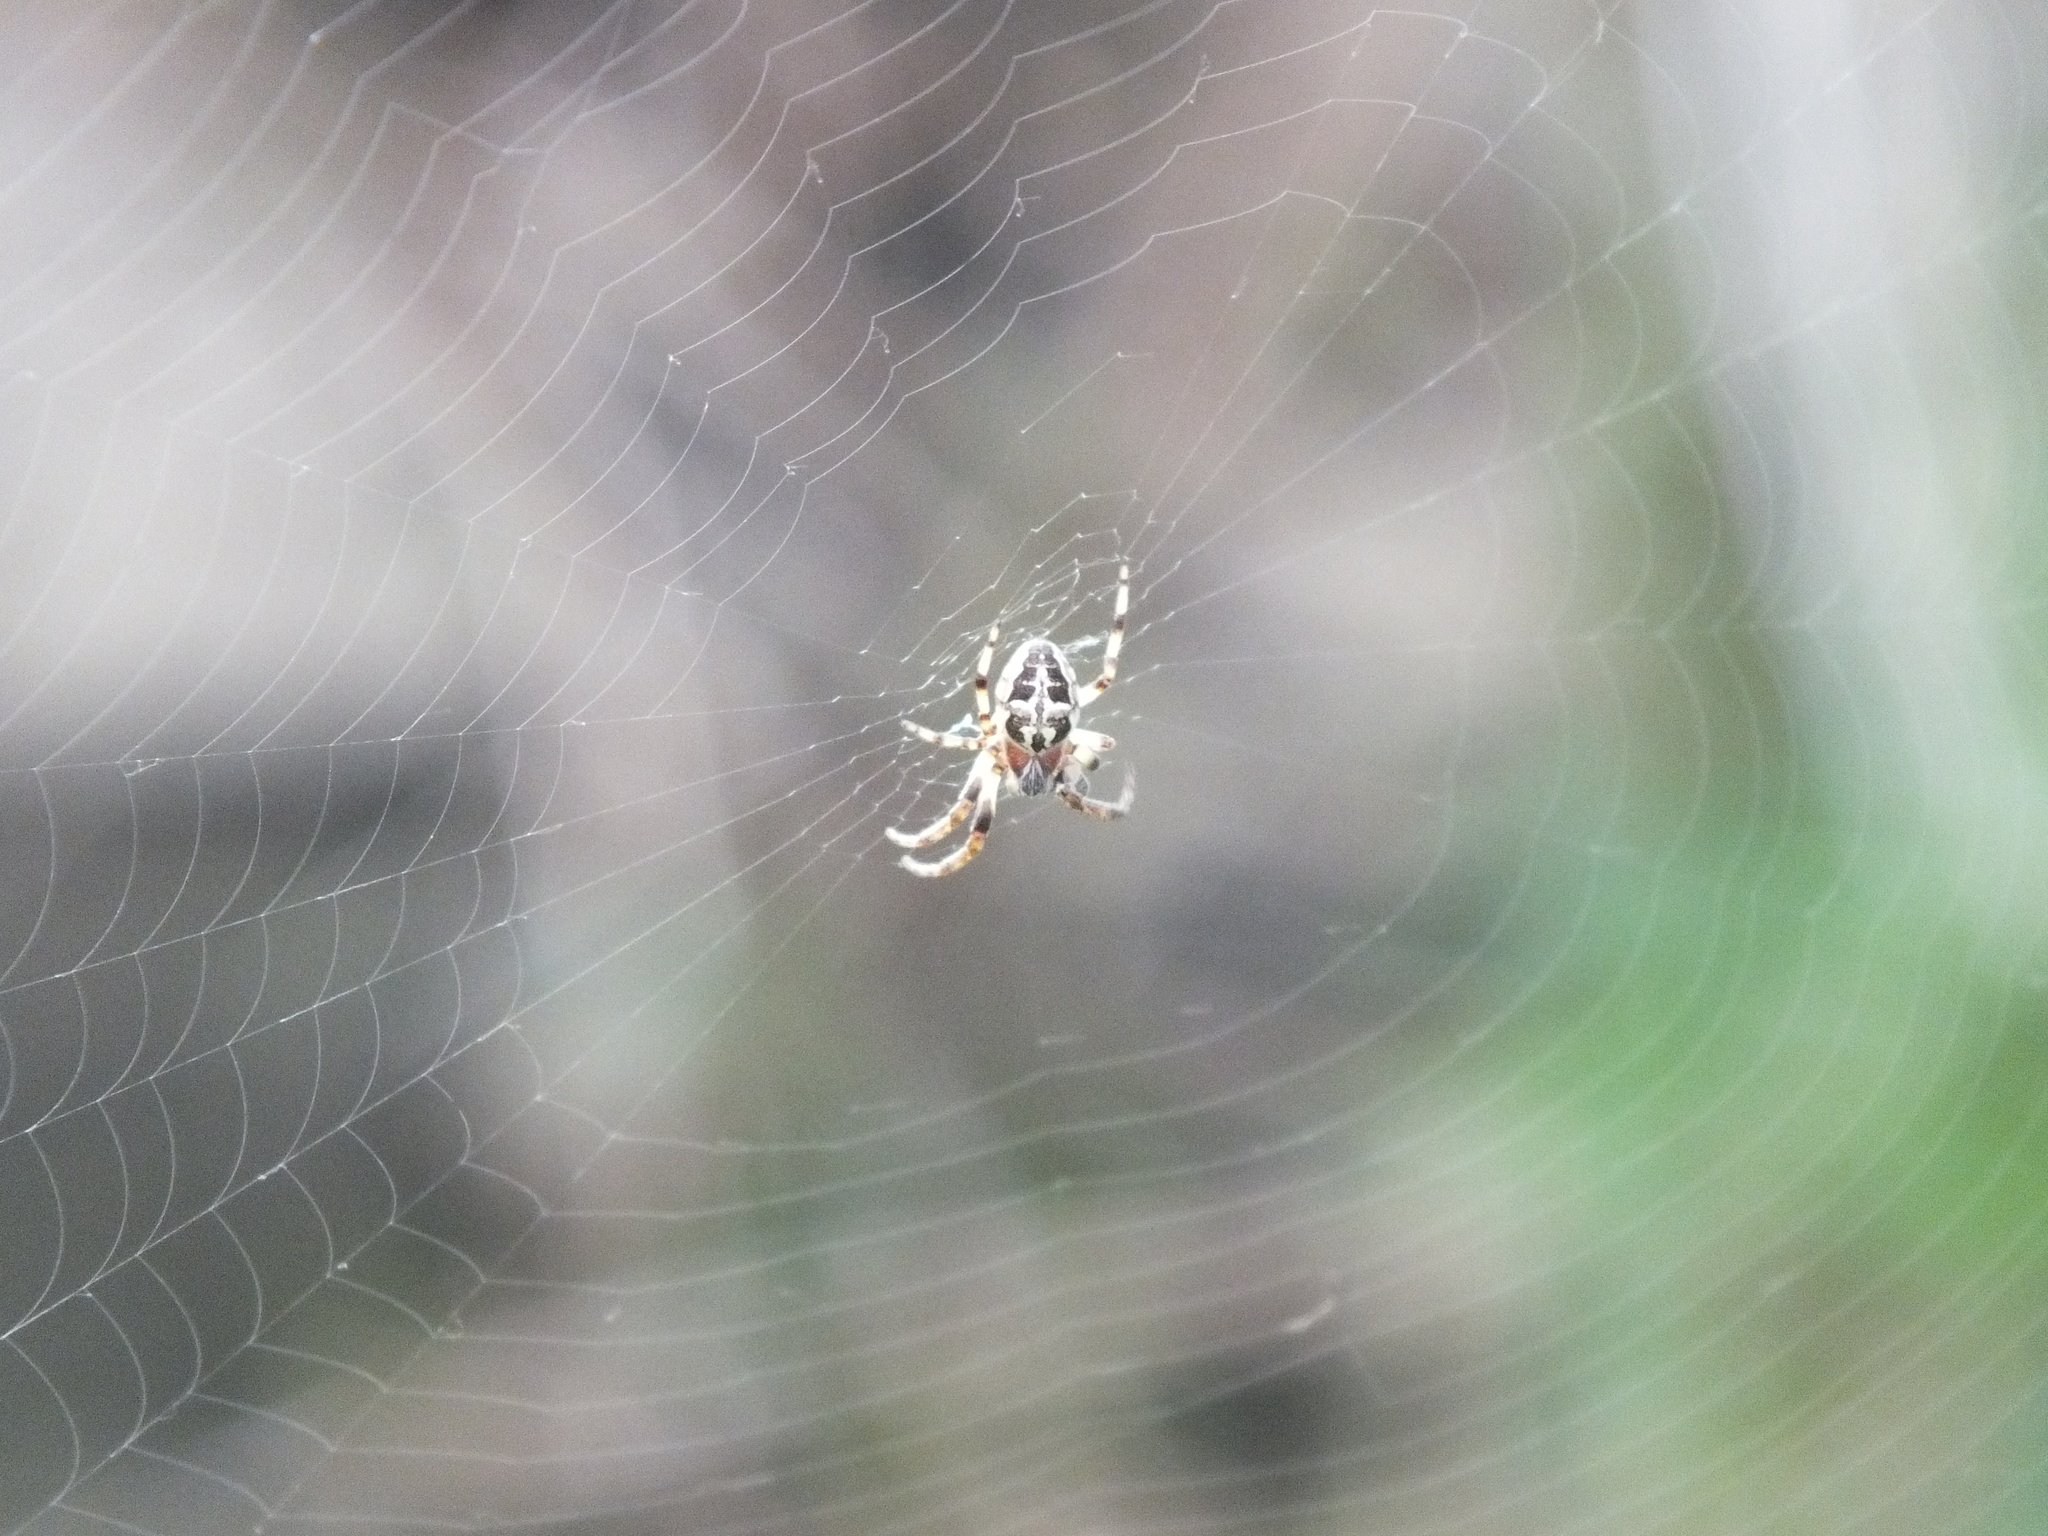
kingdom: Animalia
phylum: Arthropoda
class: Arachnida
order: Araneae
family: Araneidae
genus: Larinioides
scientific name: Larinioides cornutus
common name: Furrow orbweaver
